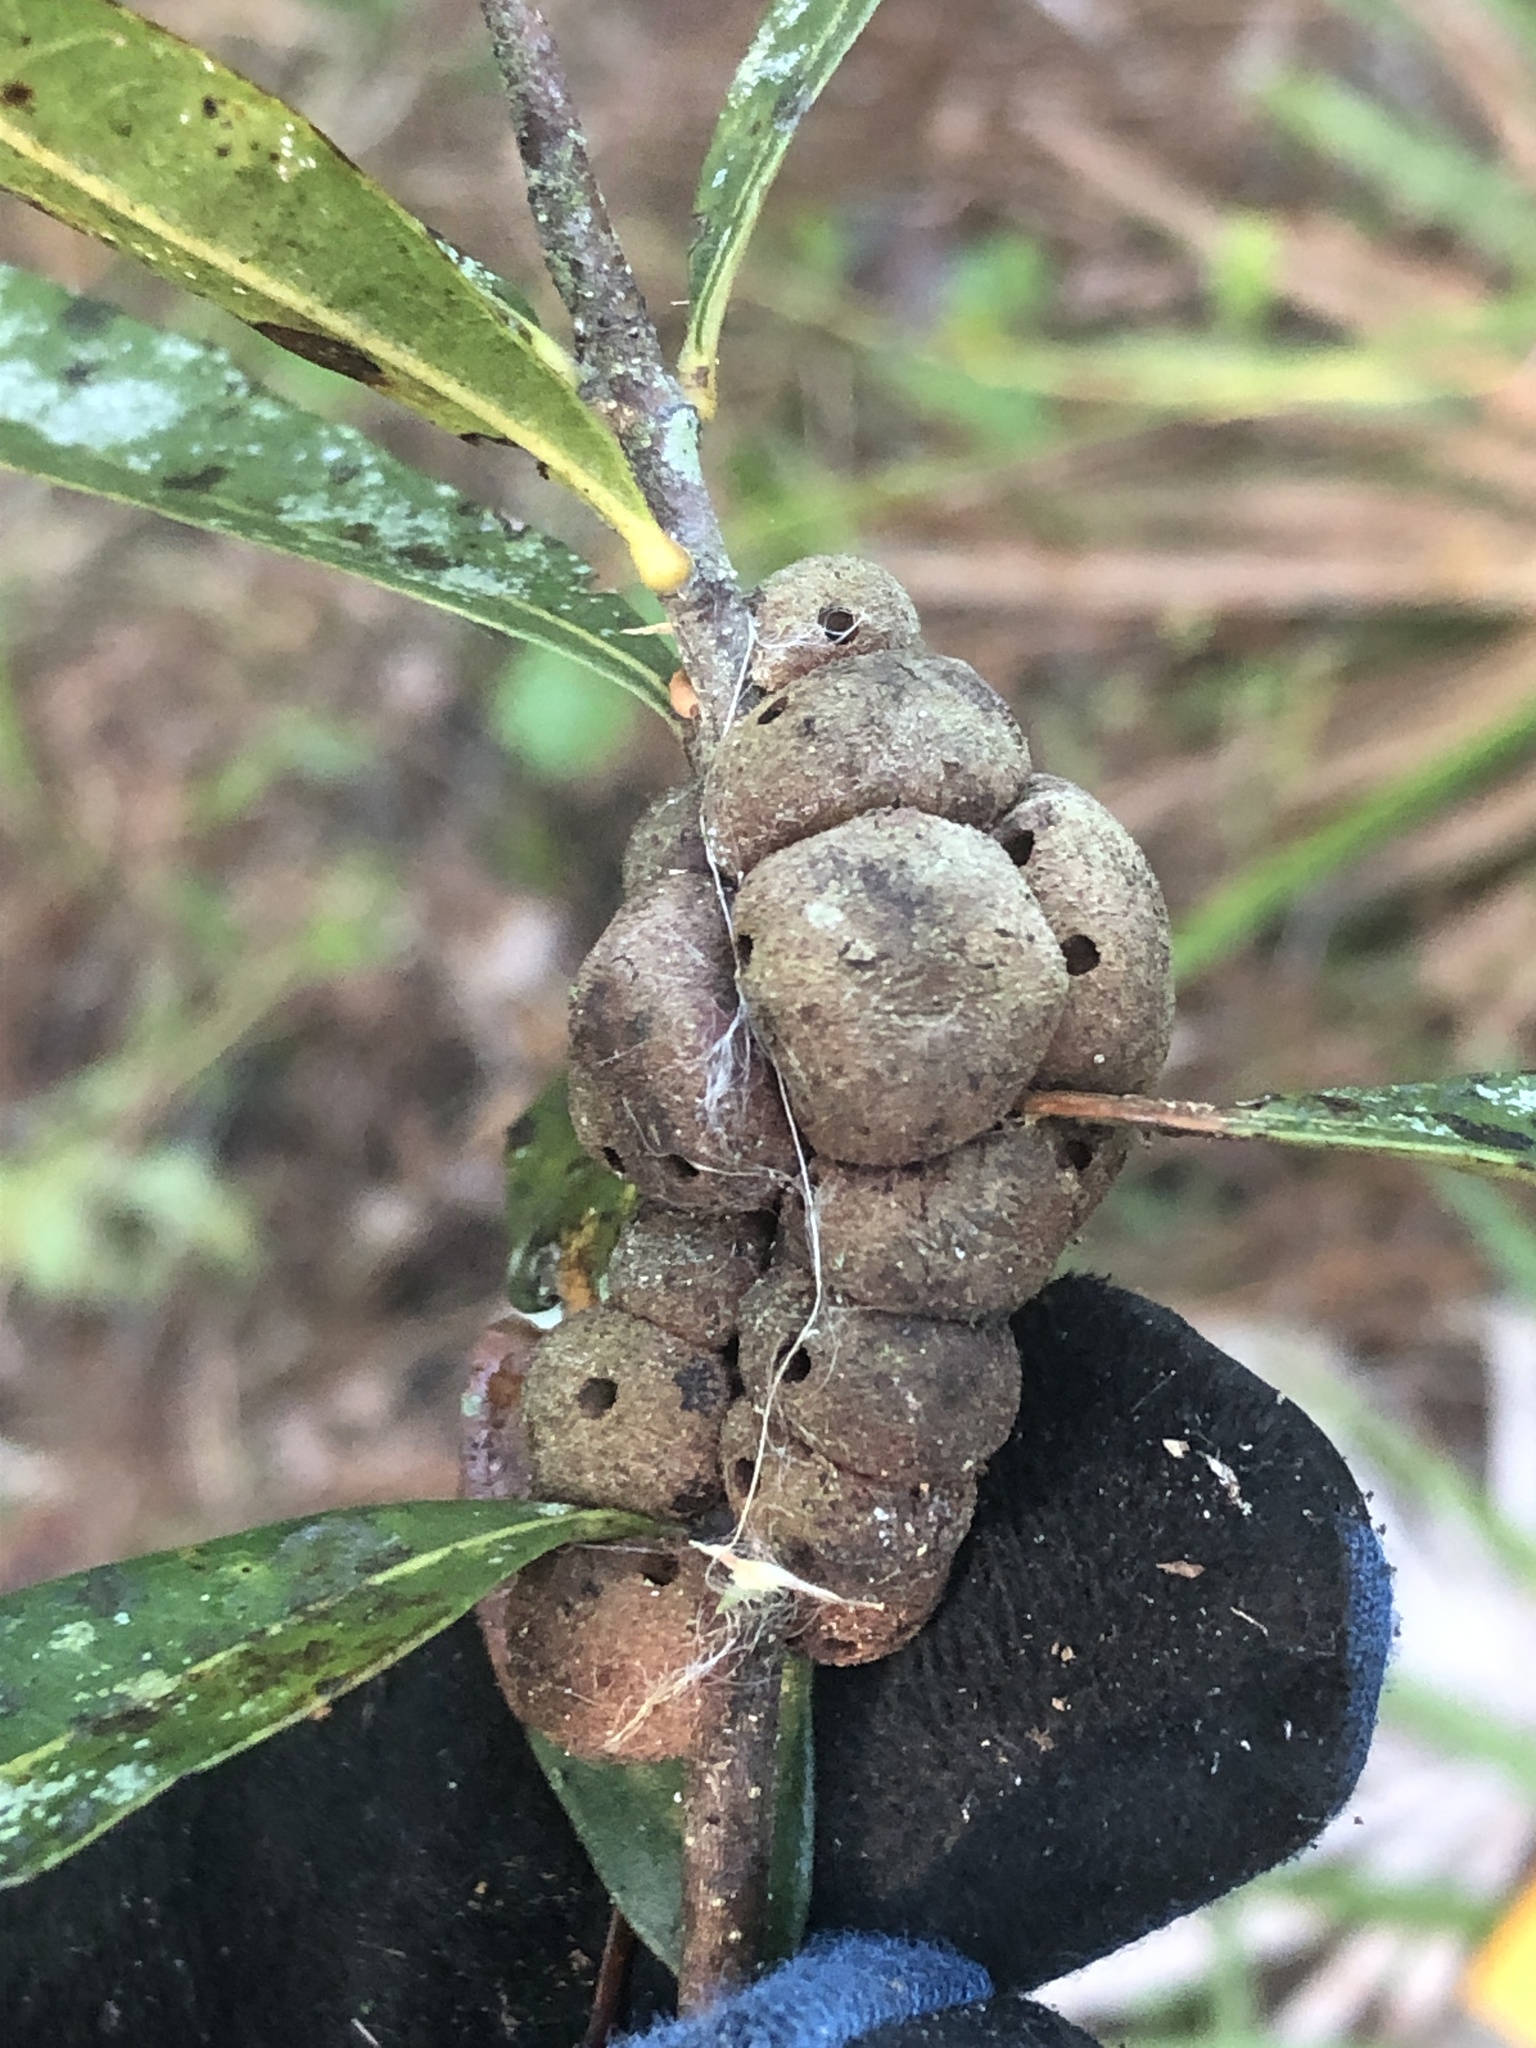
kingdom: Animalia
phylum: Arthropoda
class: Insecta
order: Hymenoptera
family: Cynipidae
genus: Disholcaspis
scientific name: Disholcaspis
